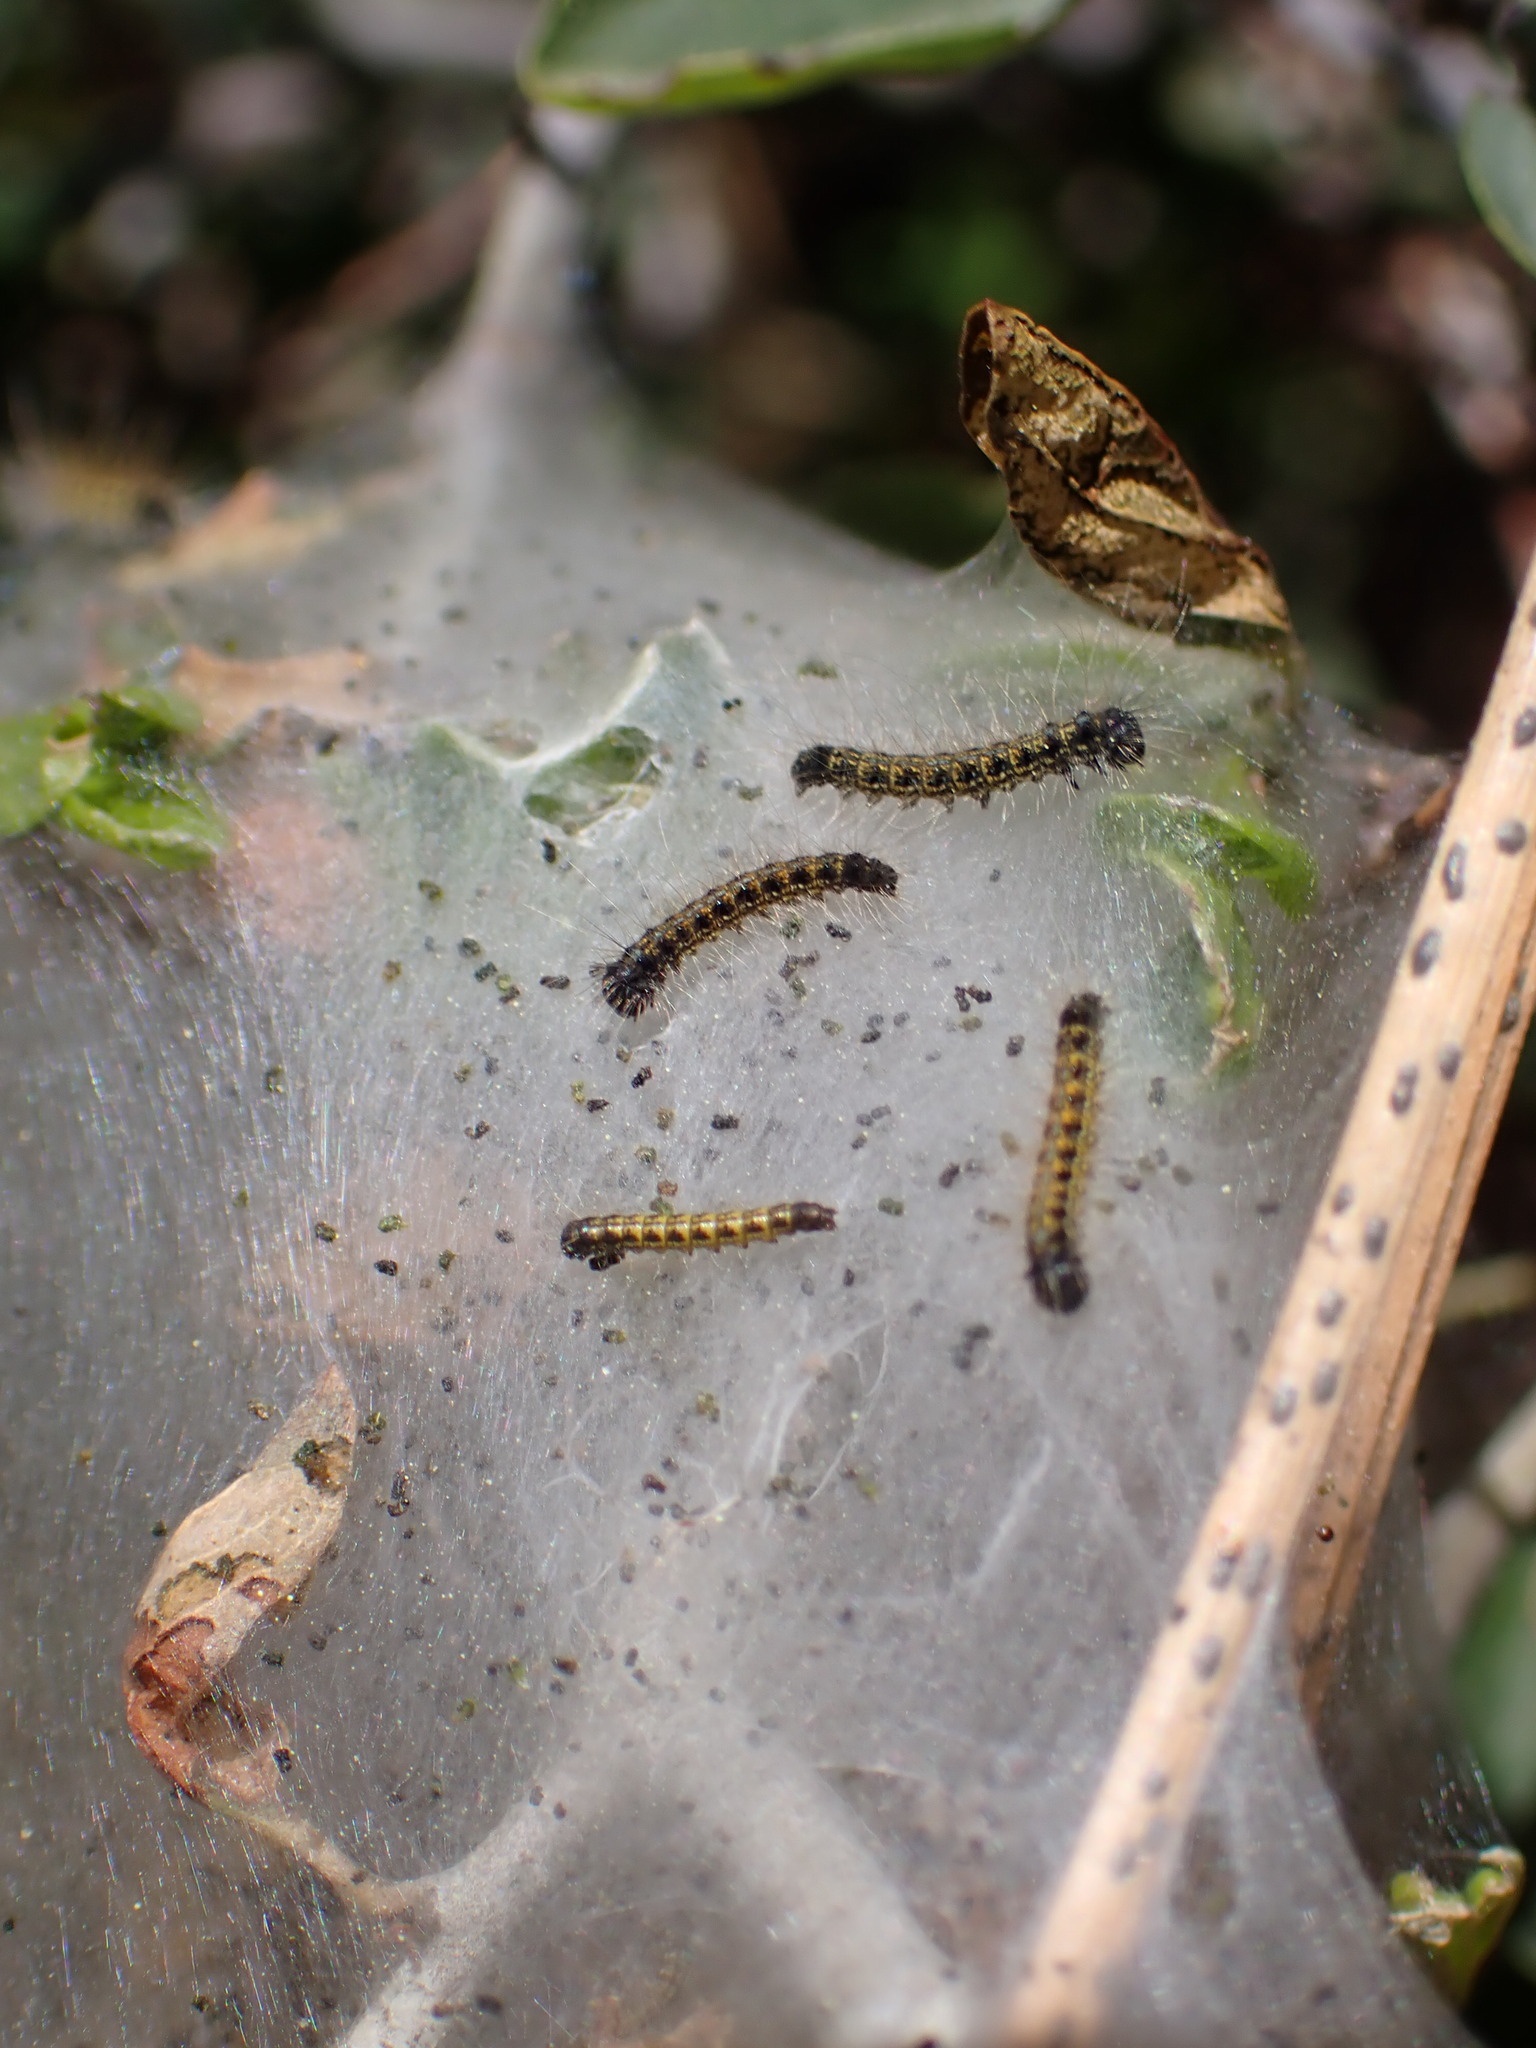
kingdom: Animalia
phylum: Arthropoda
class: Insecta
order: Lepidoptera
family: Lasiocampidae
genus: Malacosoma
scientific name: Malacosoma californica
